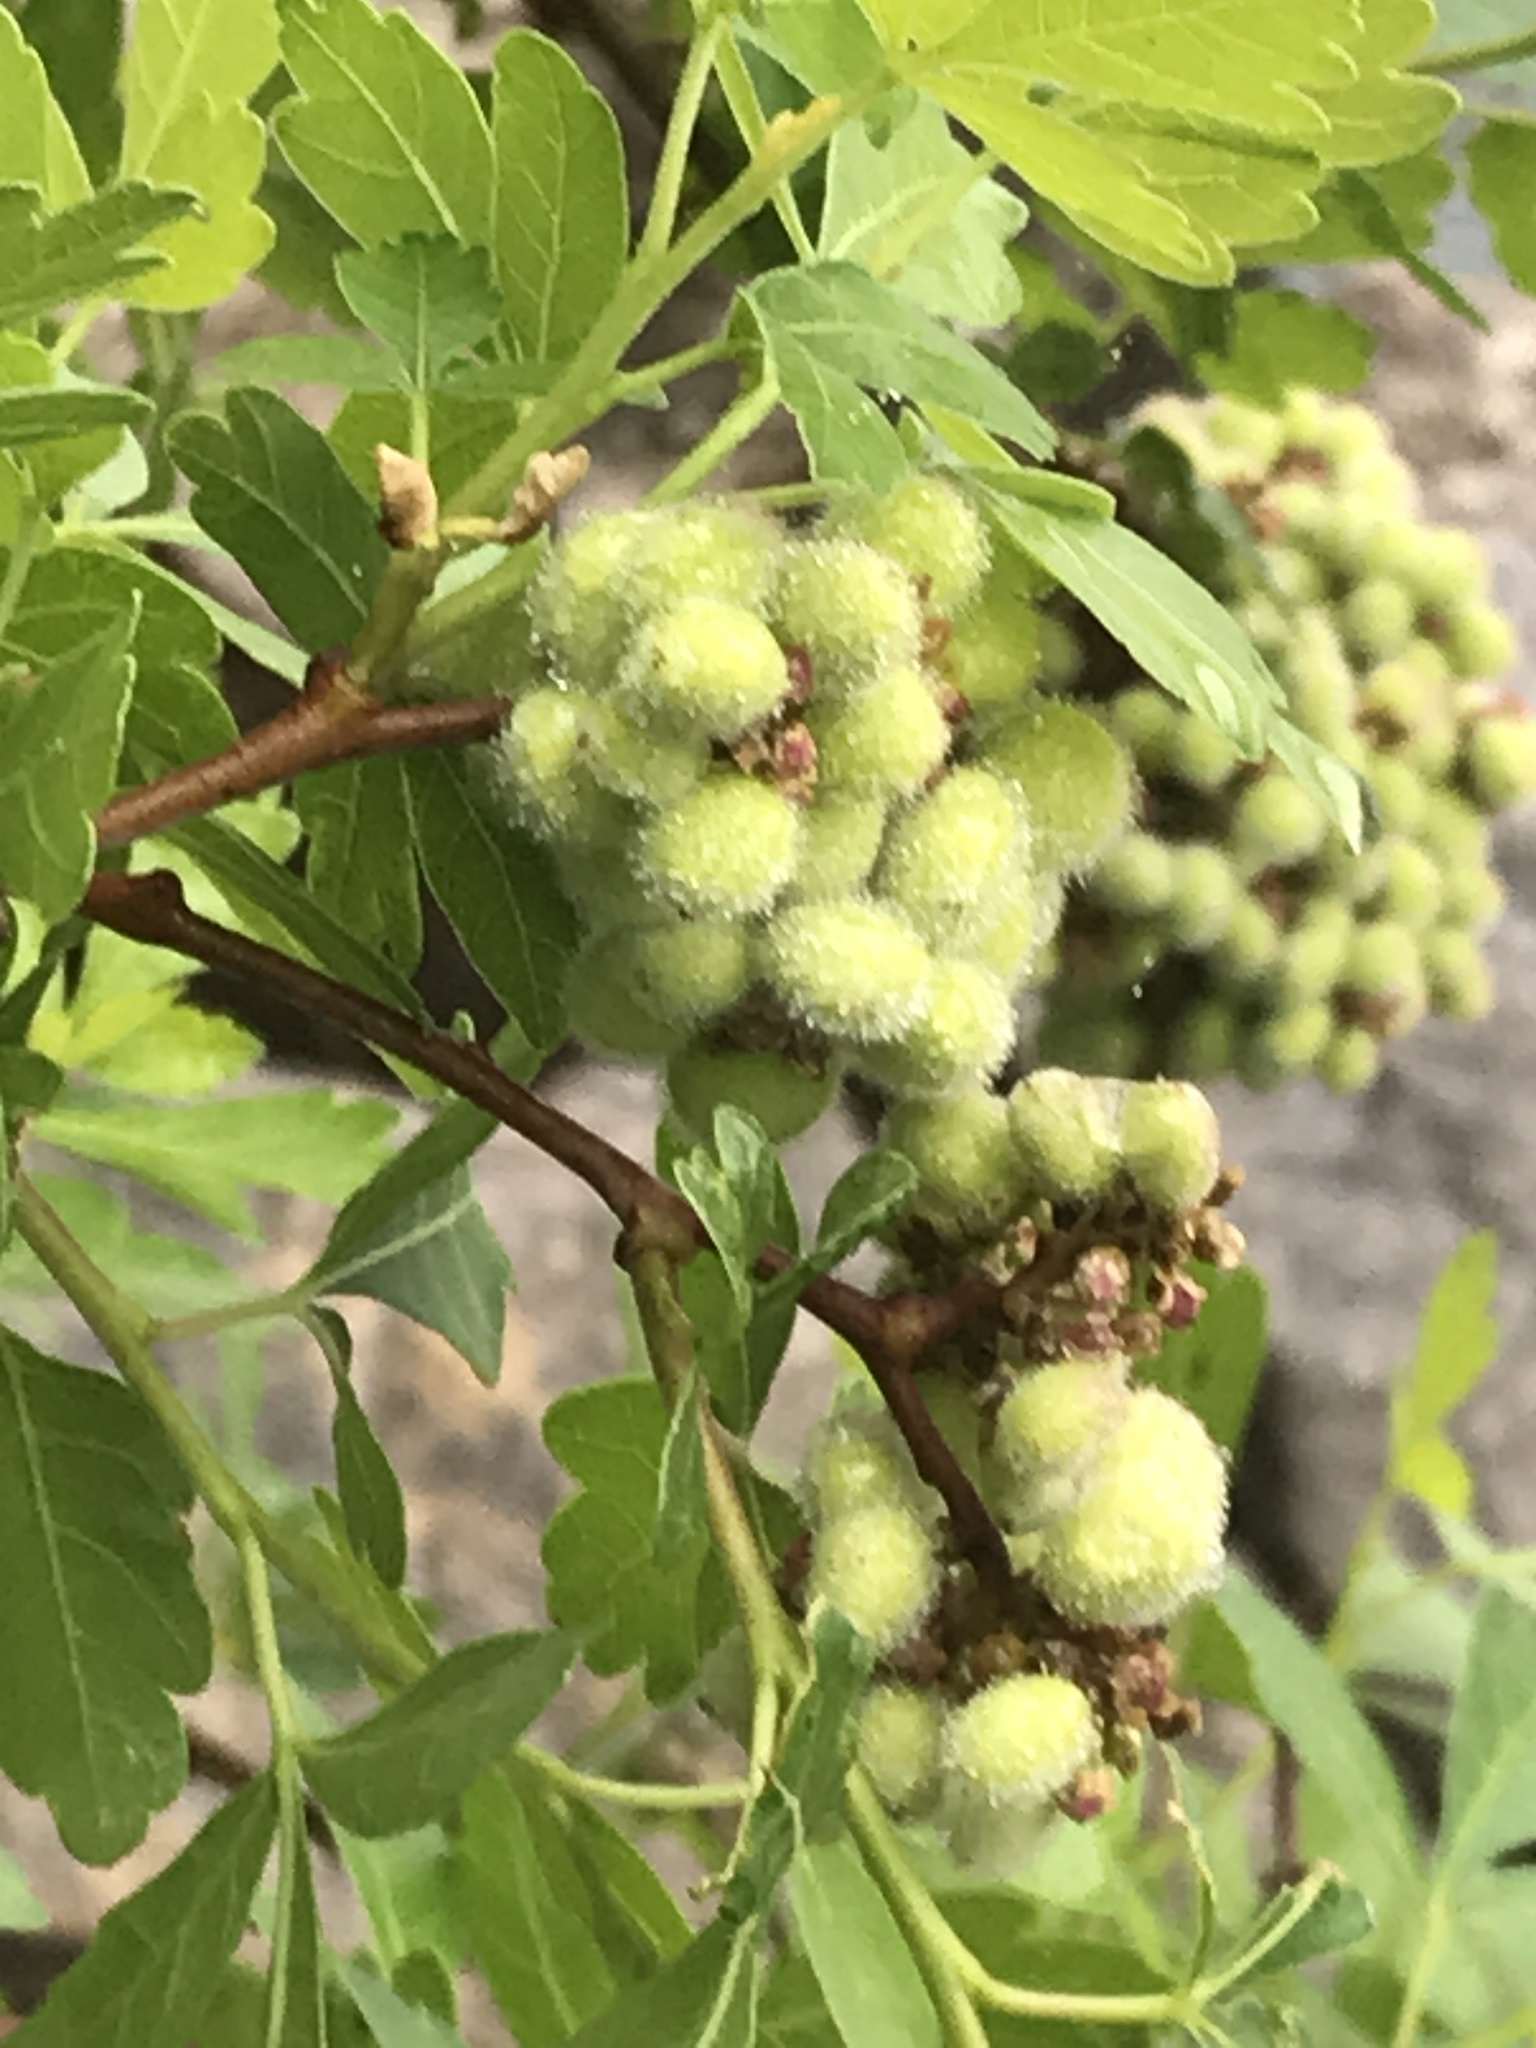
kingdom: Plantae
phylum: Tracheophyta
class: Magnoliopsida
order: Sapindales
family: Anacardiaceae
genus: Rhus
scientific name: Rhus aromatica
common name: Aromatic sumac
